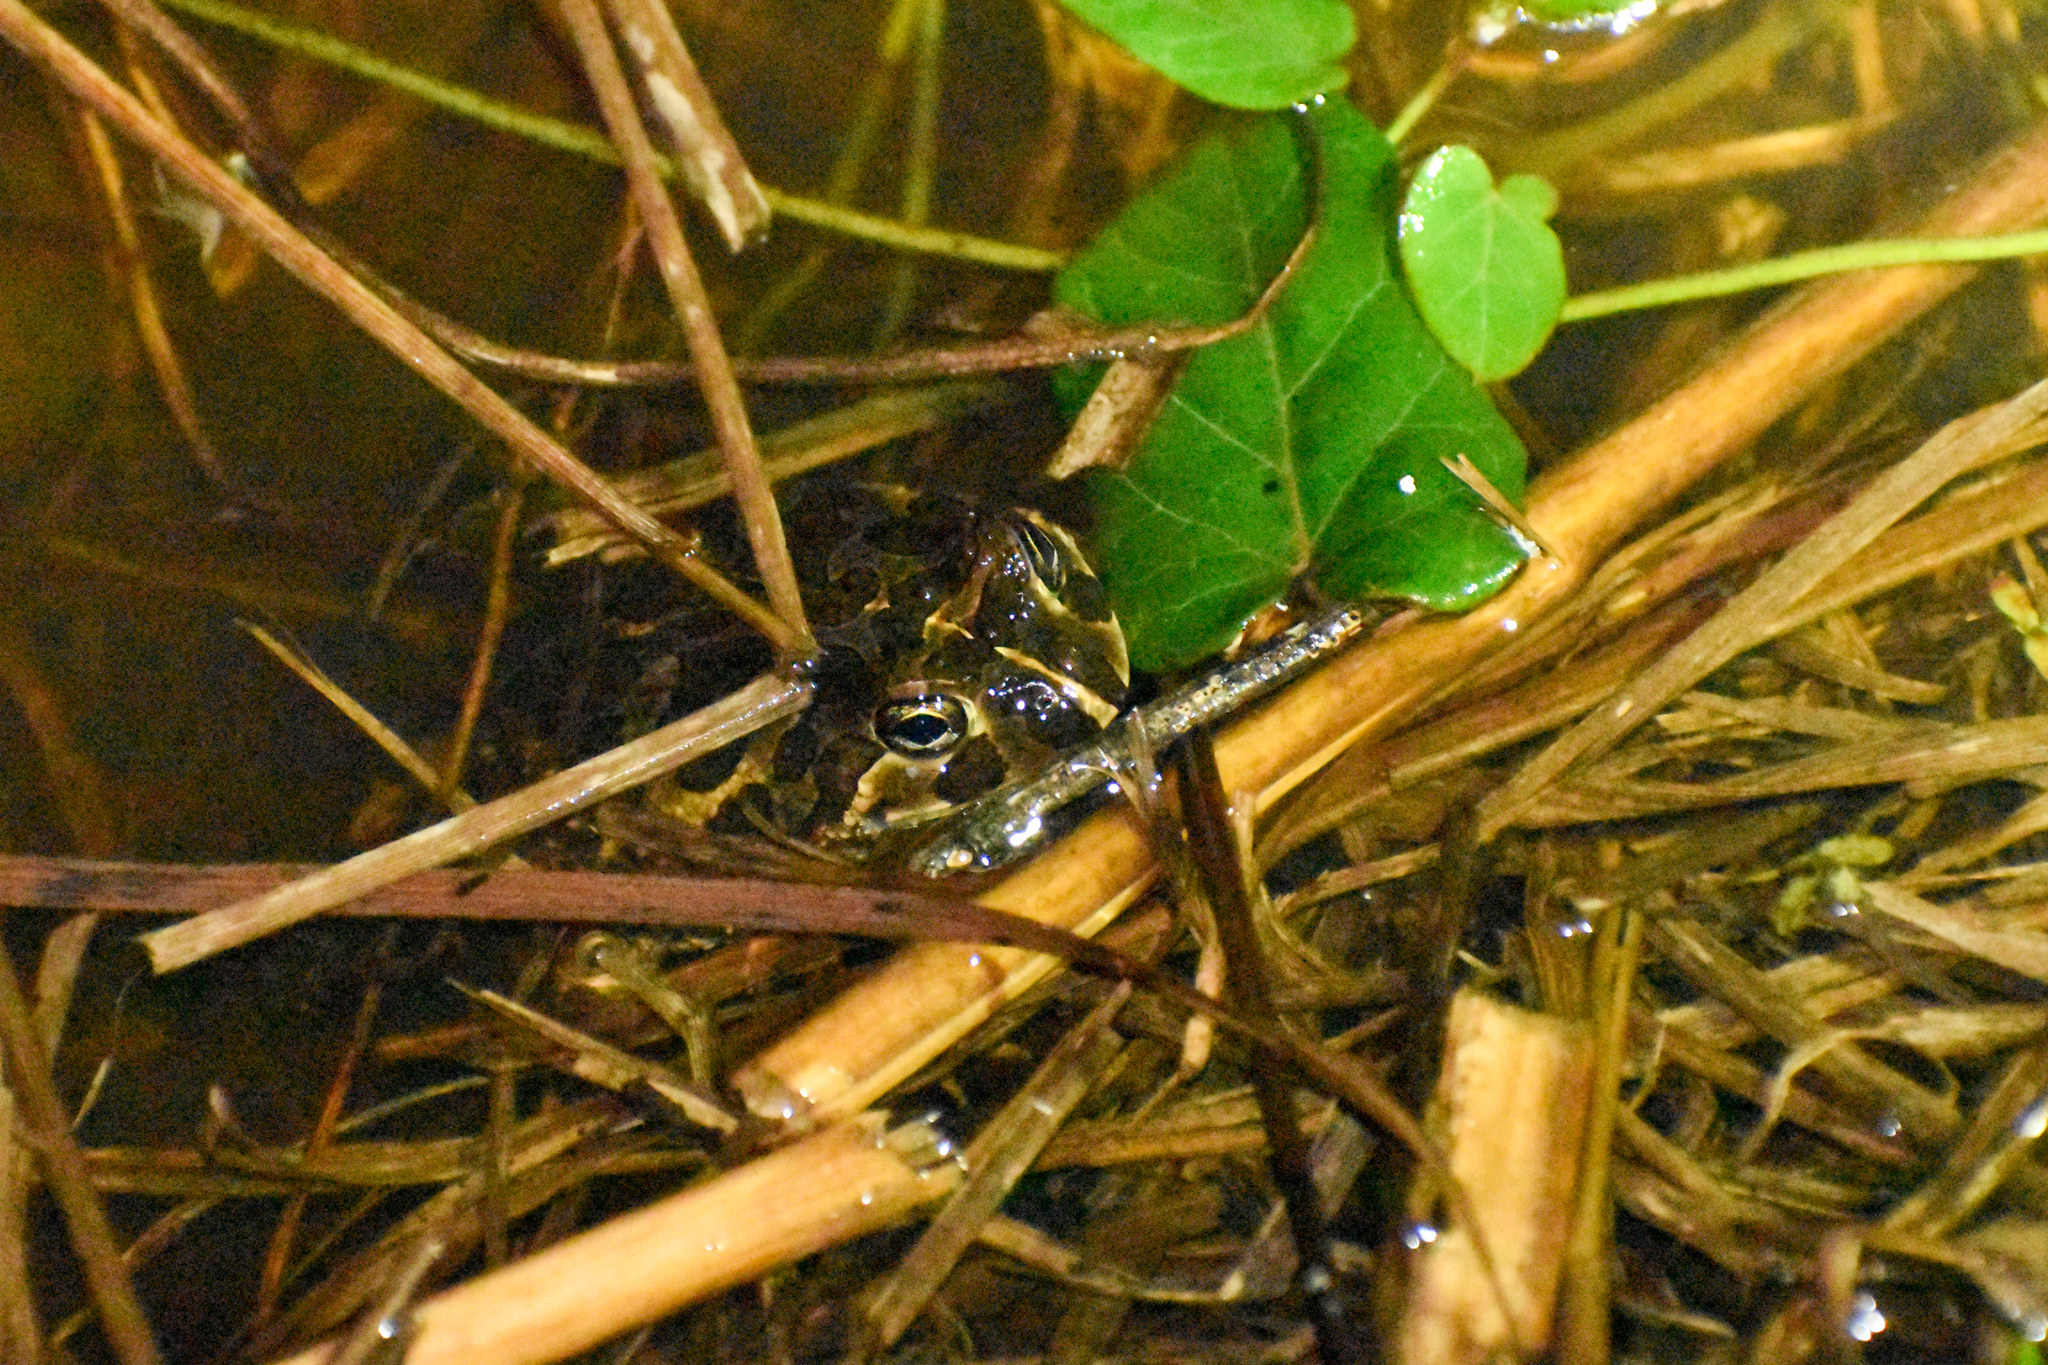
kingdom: Animalia
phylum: Chordata
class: Amphibia
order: Anura
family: Odontophrynidae
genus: Odontophrynus
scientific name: Odontophrynus
